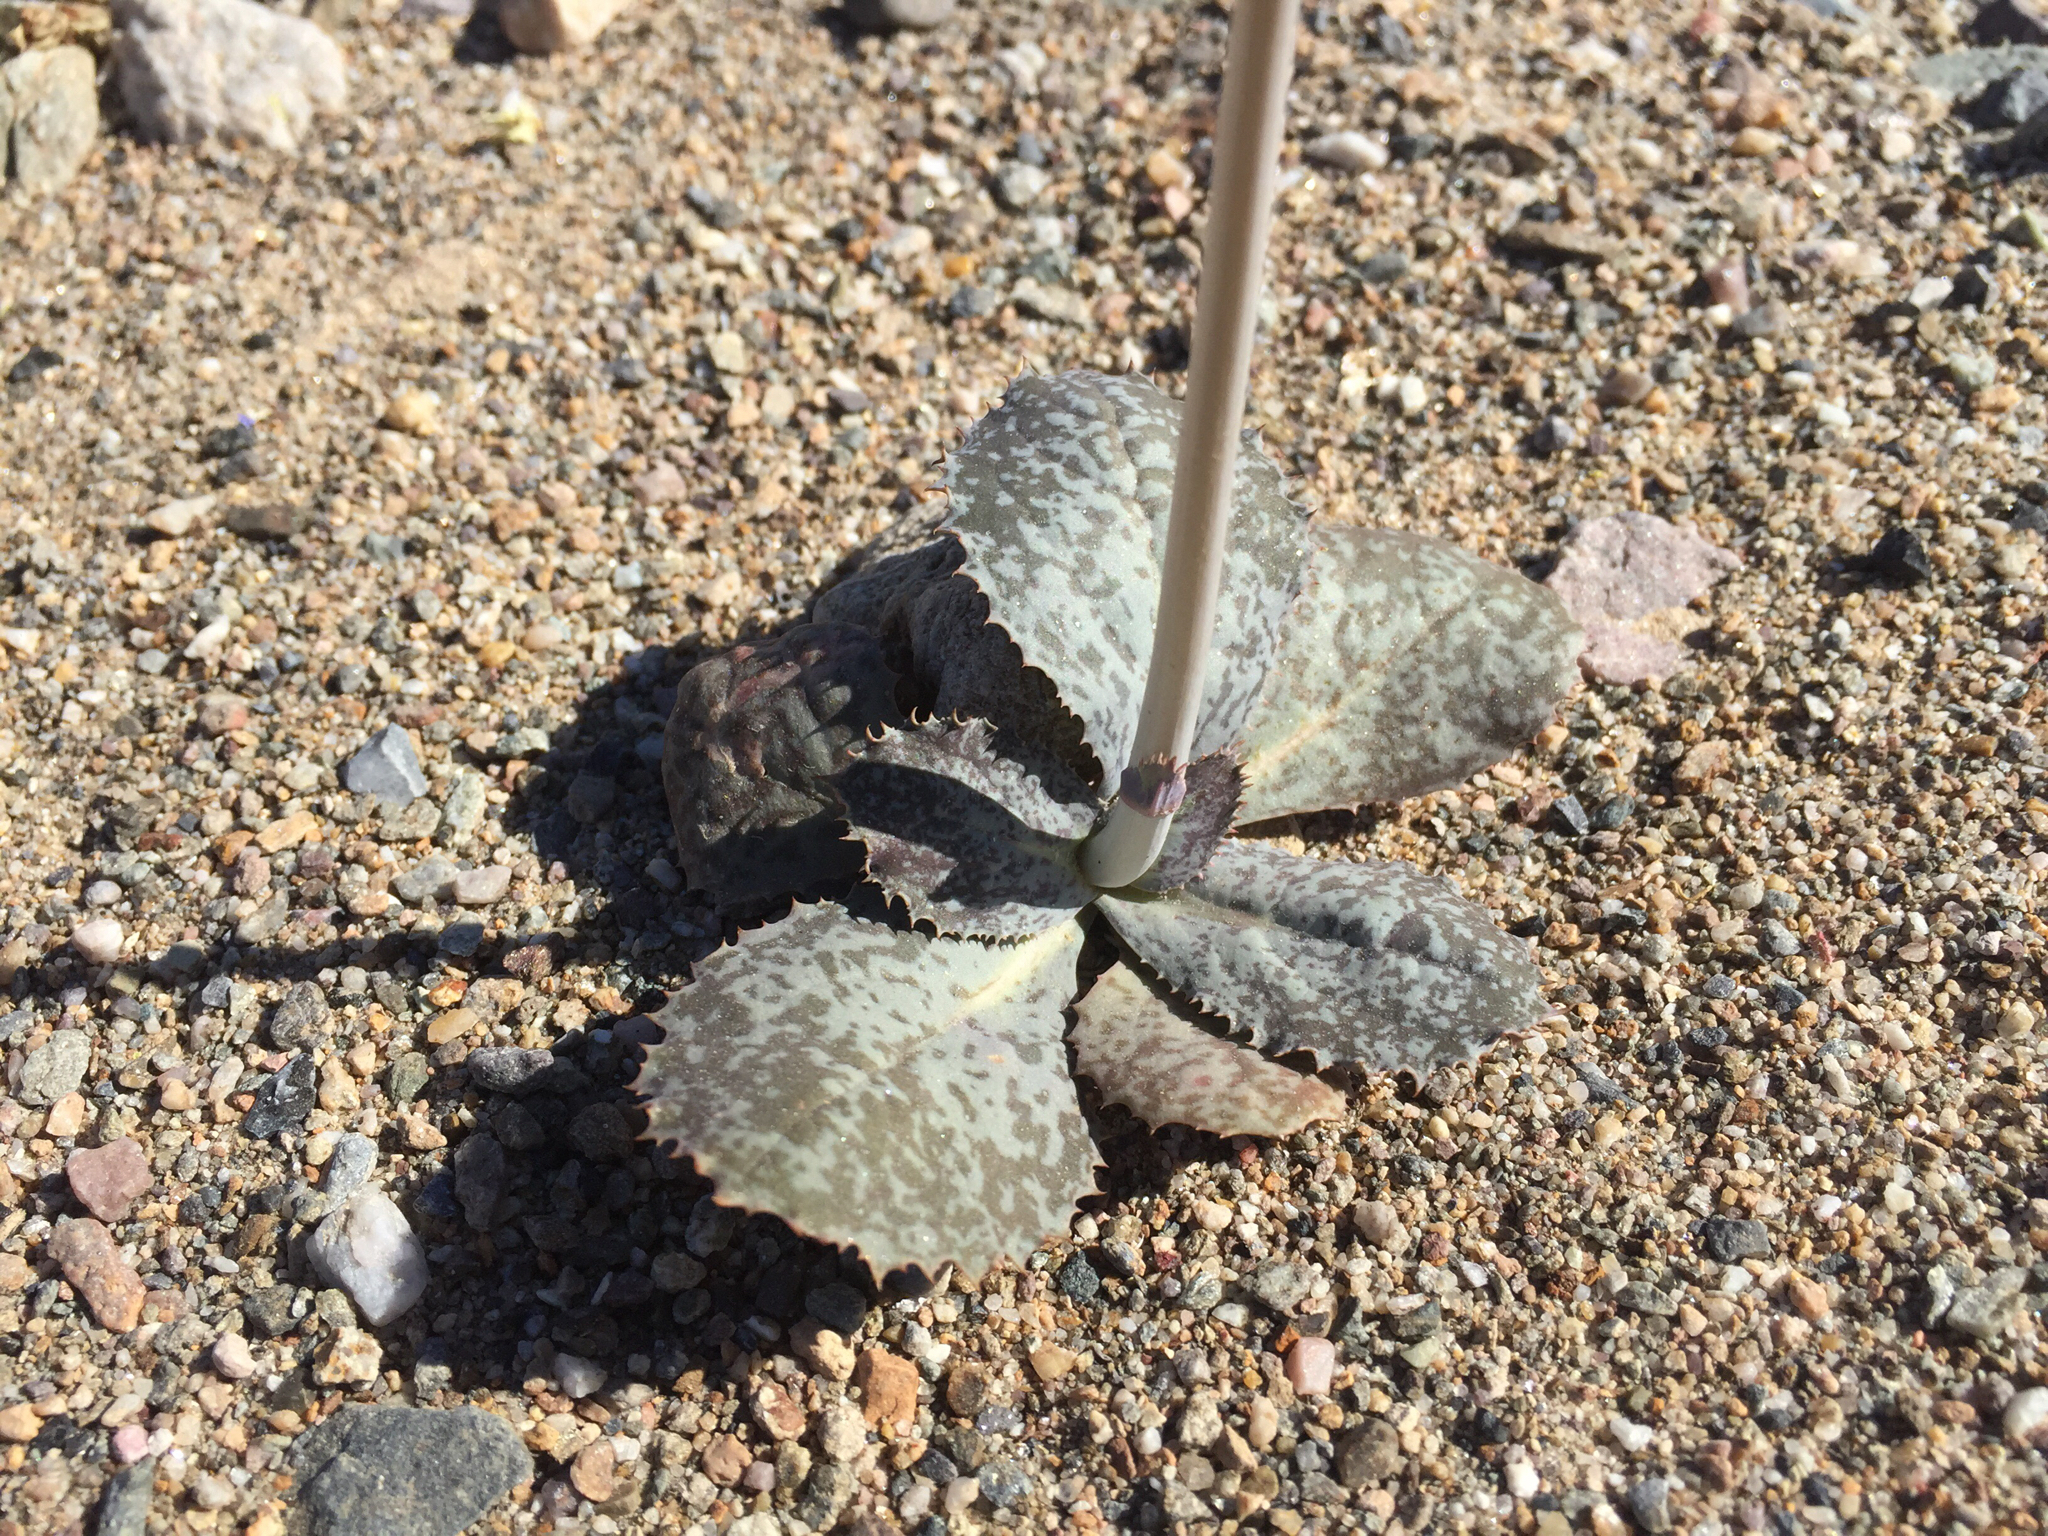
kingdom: Plantae
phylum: Tracheophyta
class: Magnoliopsida
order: Asterales
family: Asteraceae
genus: Atrichoseris
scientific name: Atrichoseris platyphylla
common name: Tobaccoweed
